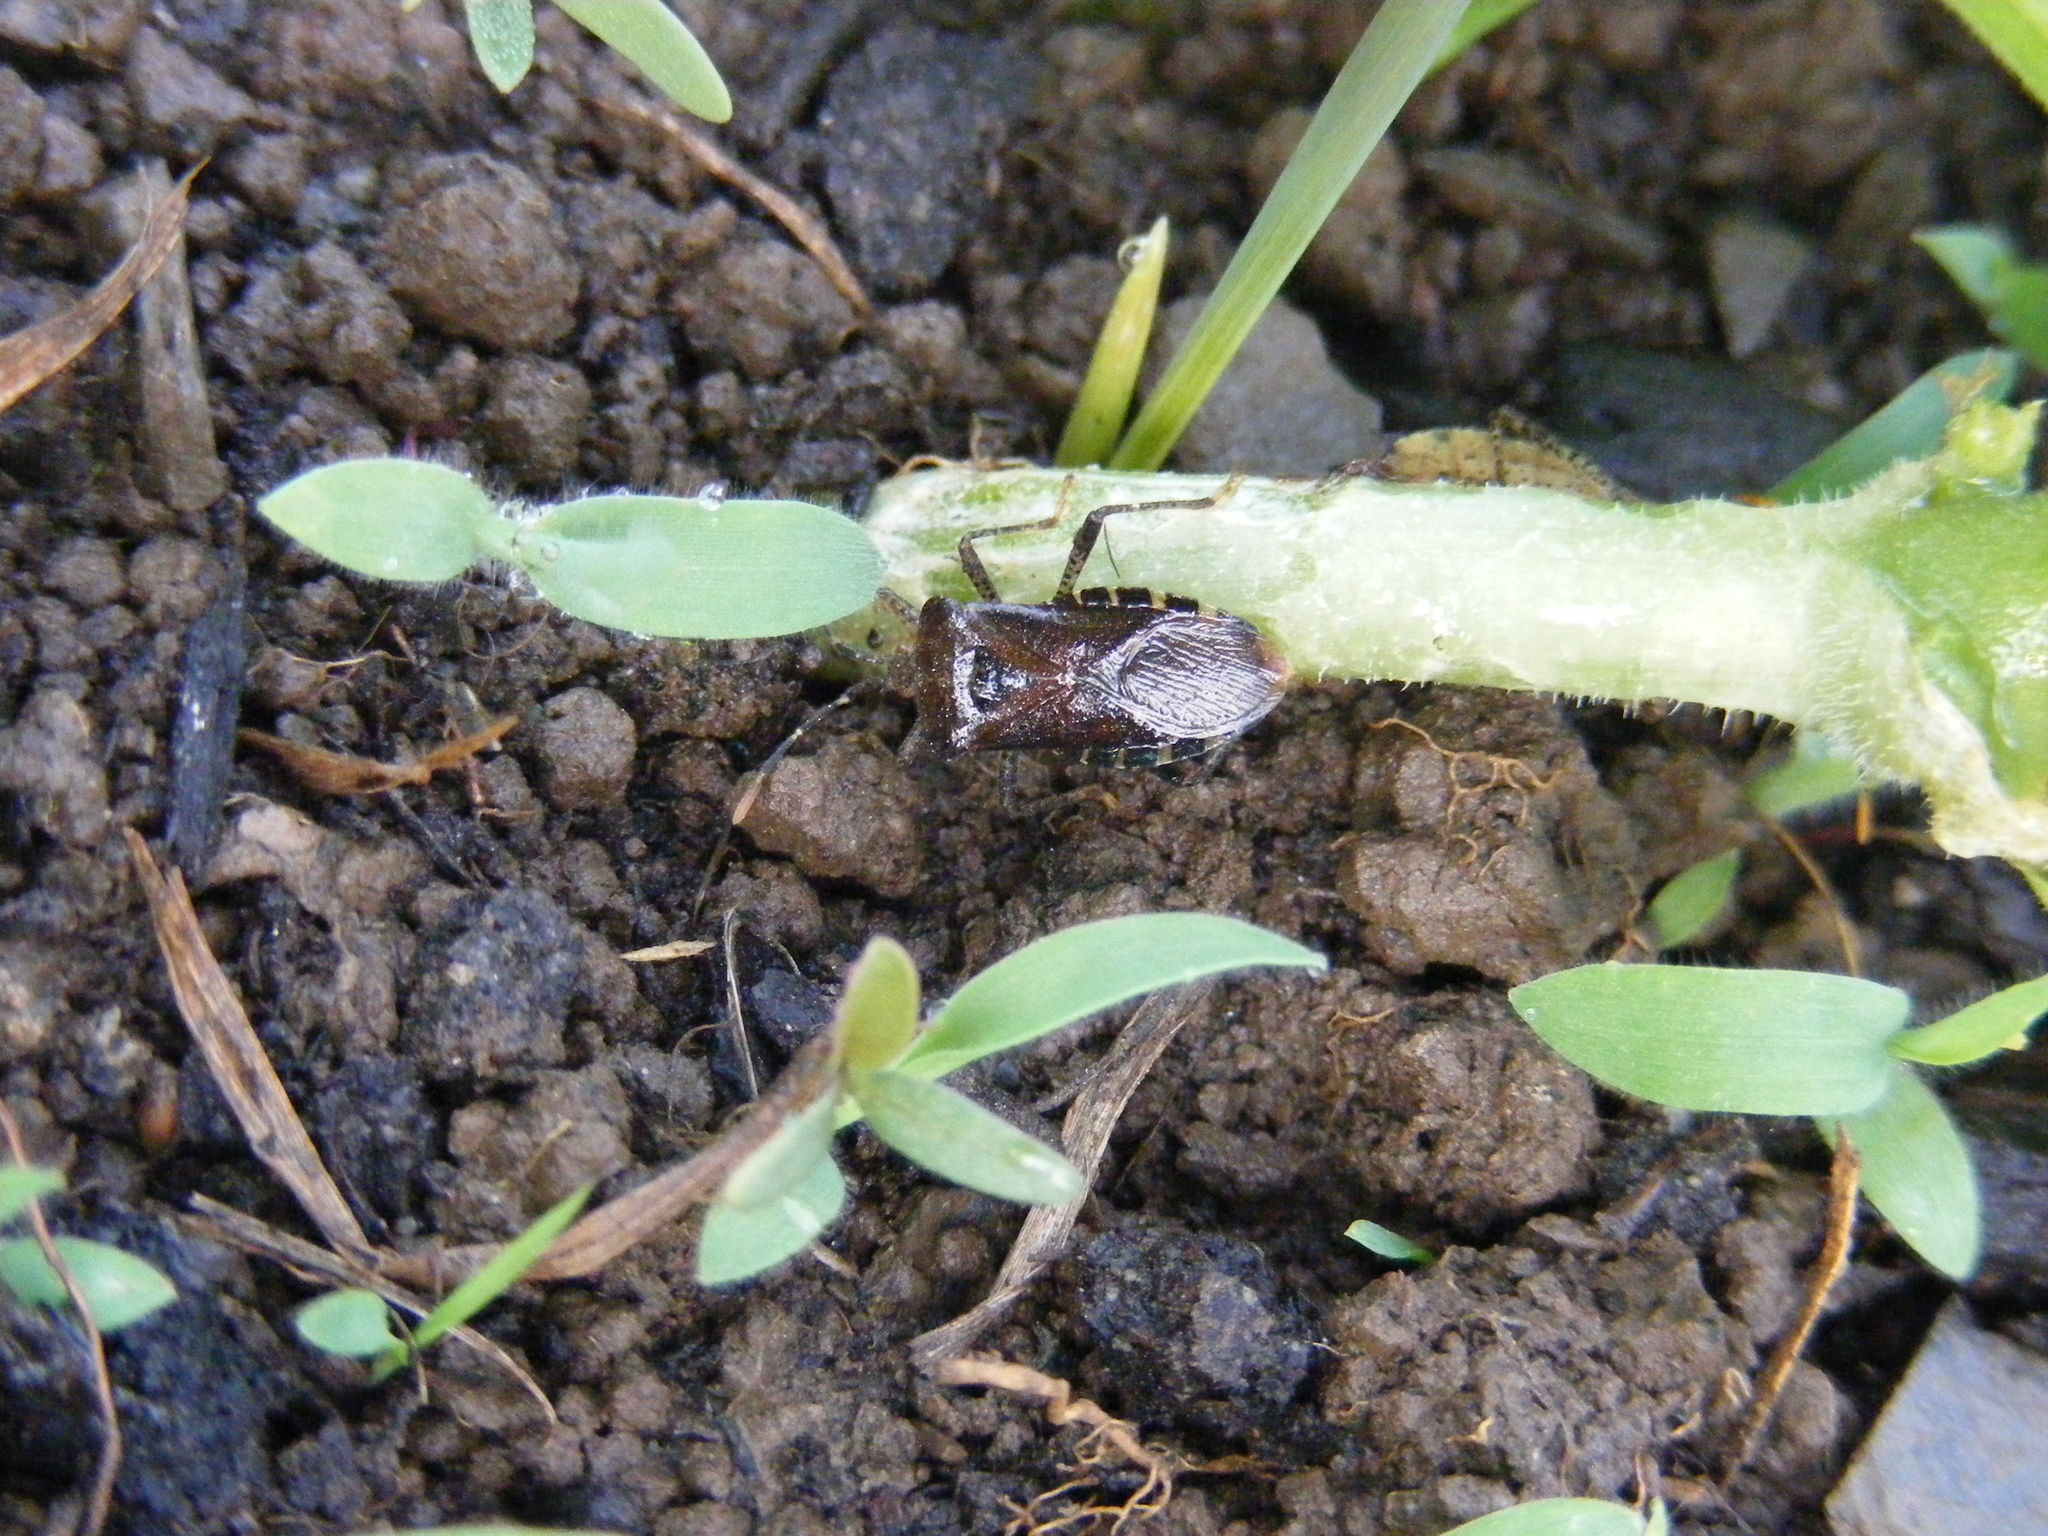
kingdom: Animalia
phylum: Arthropoda
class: Insecta
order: Hemiptera
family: Coreidae
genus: Anasa
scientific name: Anasa armigera
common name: Horned squash bug
